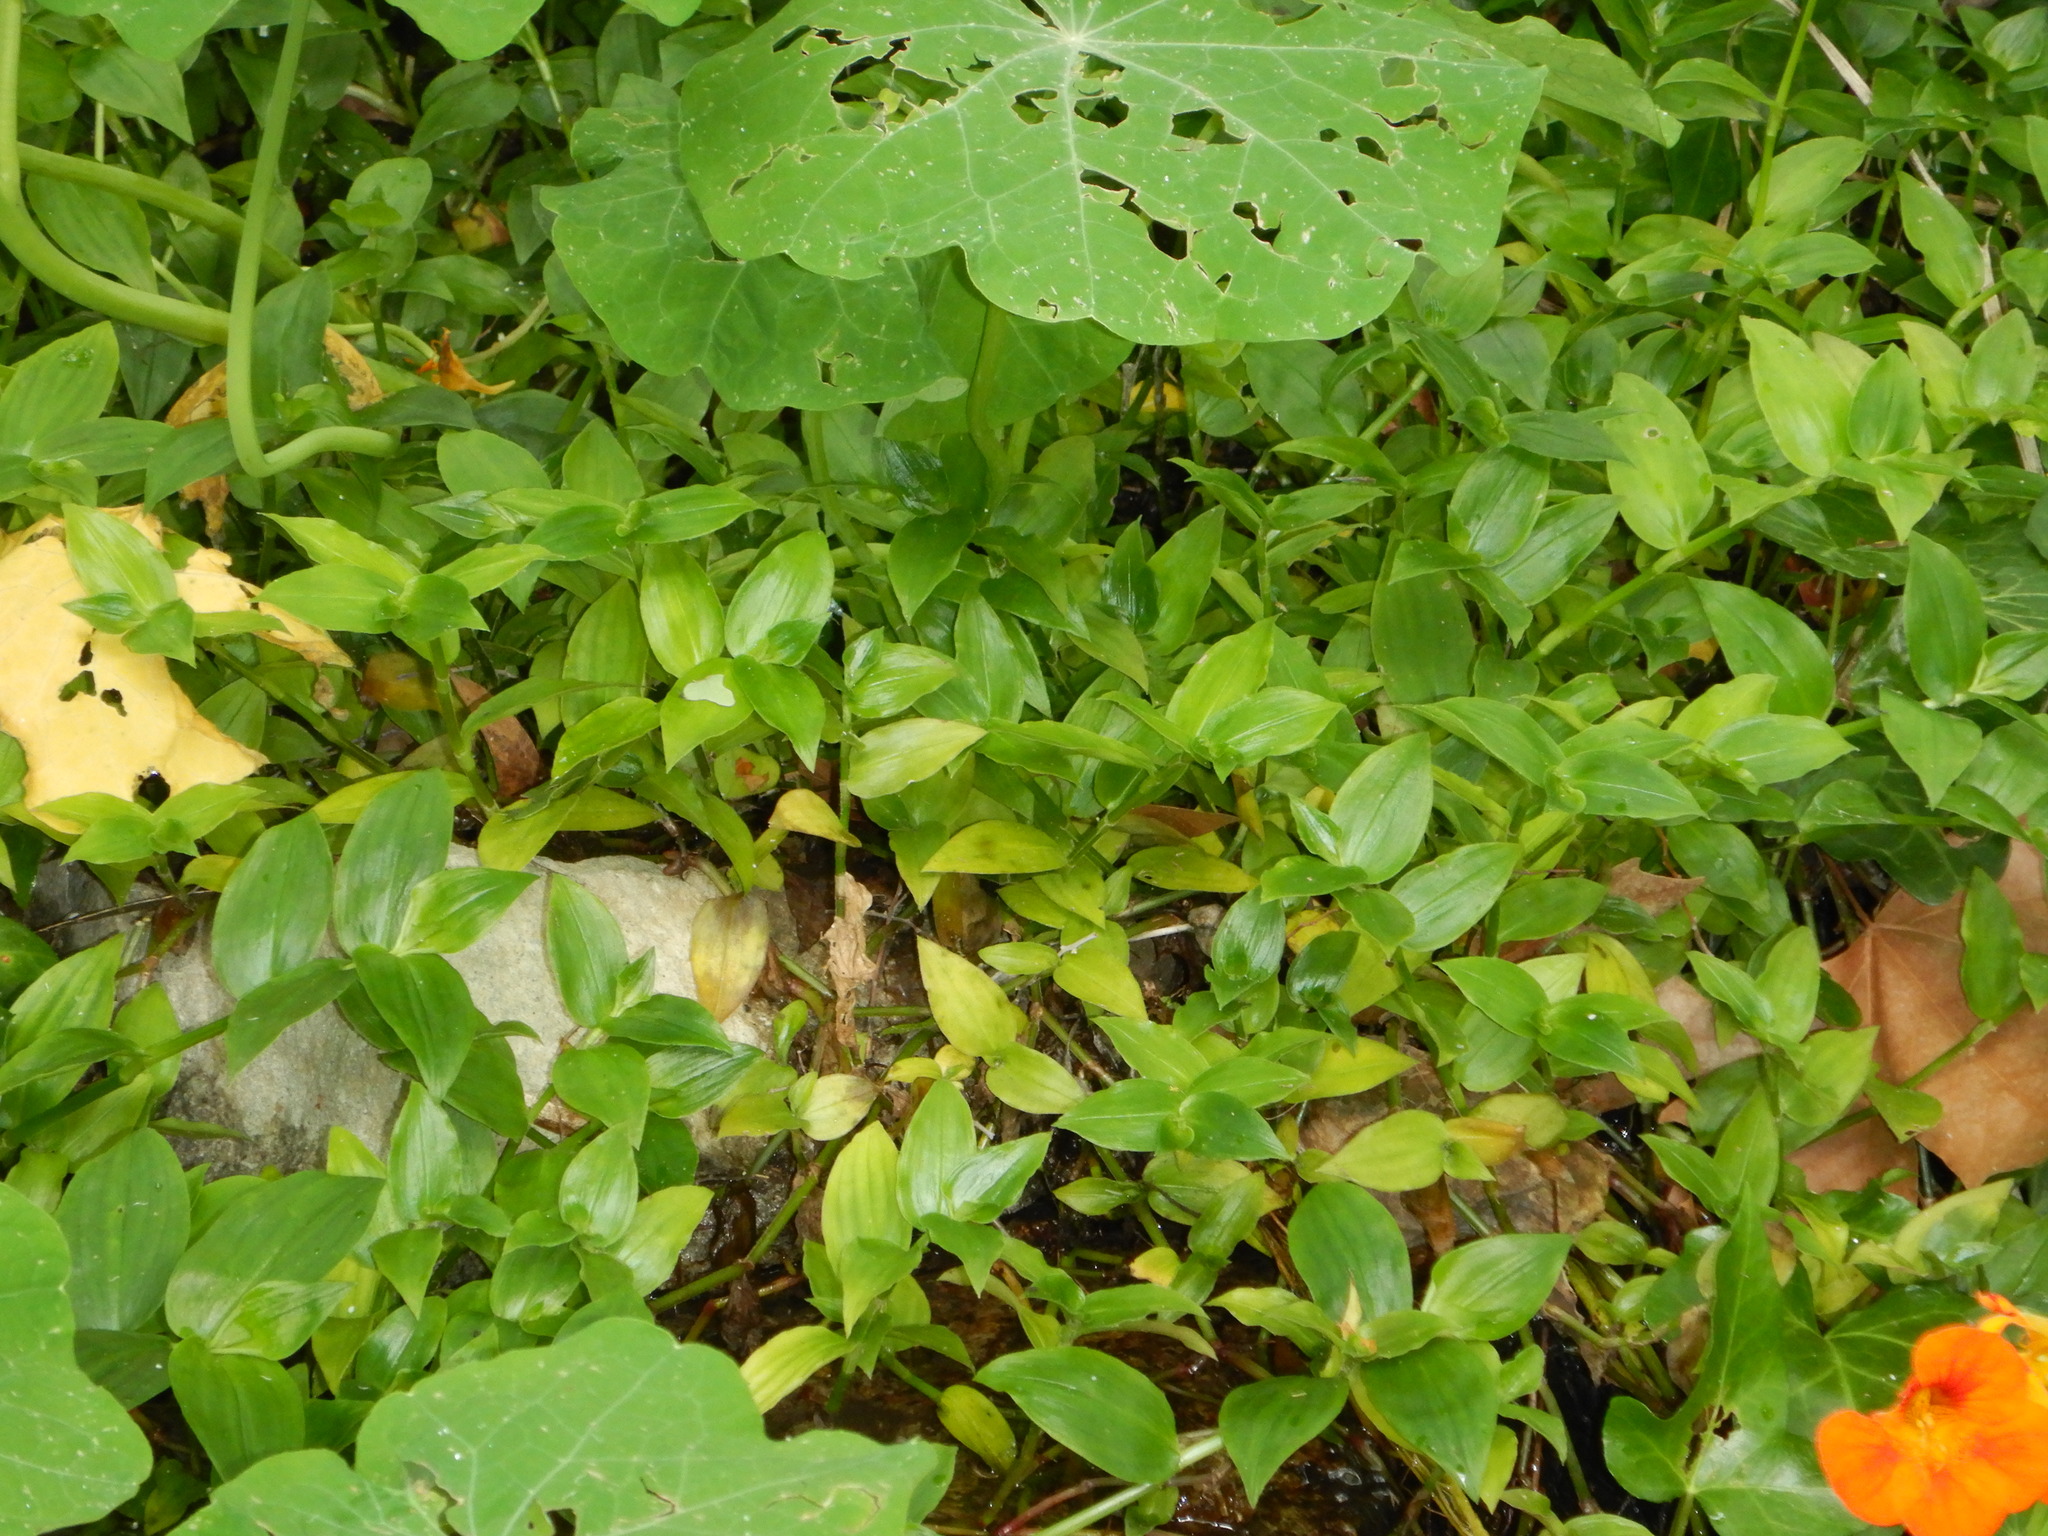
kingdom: Plantae
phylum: Tracheophyta
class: Liliopsida
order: Commelinales
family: Commelinaceae
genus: Tradescantia
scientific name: Tradescantia fluminensis
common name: Wandering-jew
